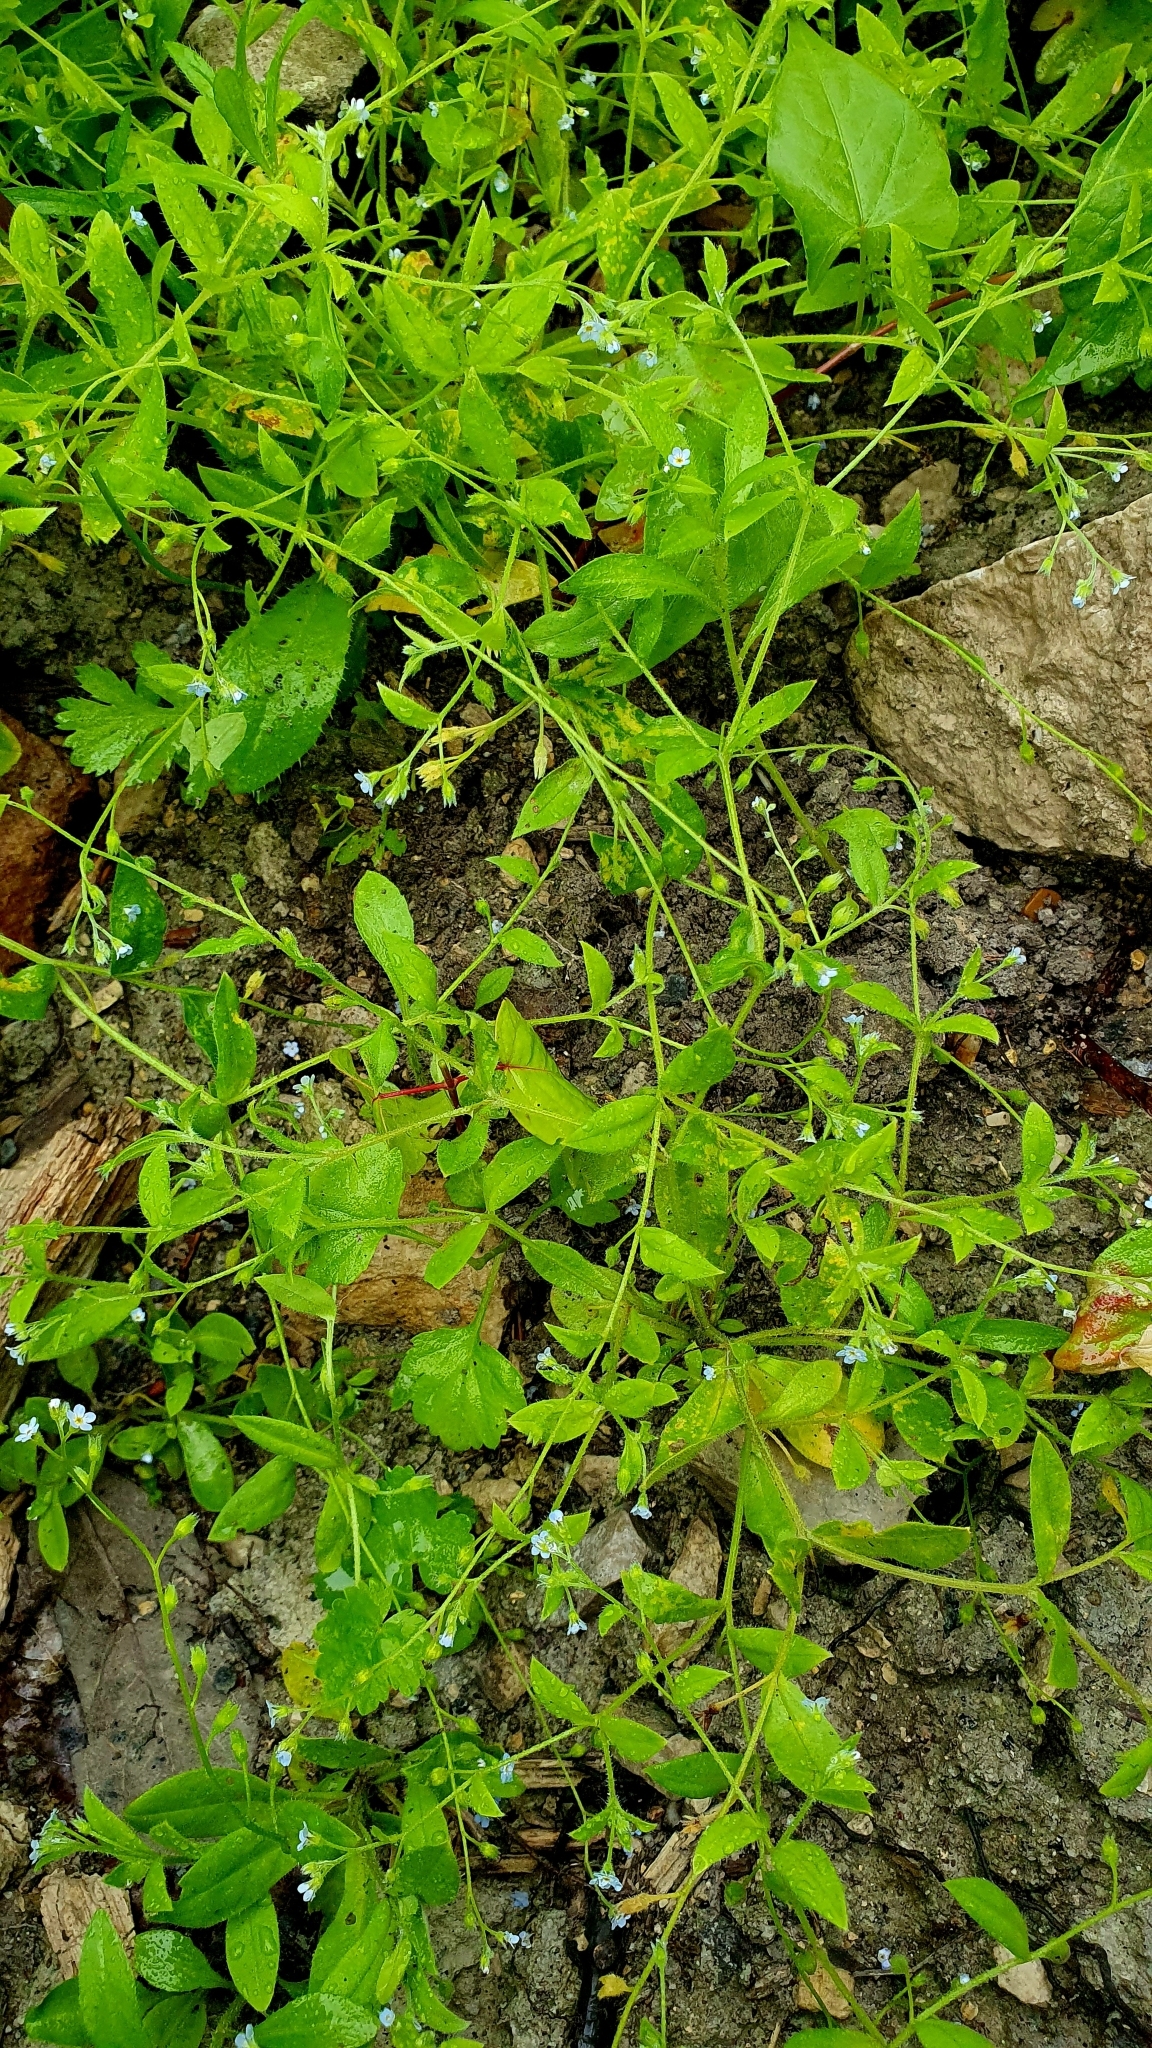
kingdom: Plantae
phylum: Tracheophyta
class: Magnoliopsida
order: Boraginales
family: Boraginaceae
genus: Myosotis
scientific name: Myosotis sparsiflora
